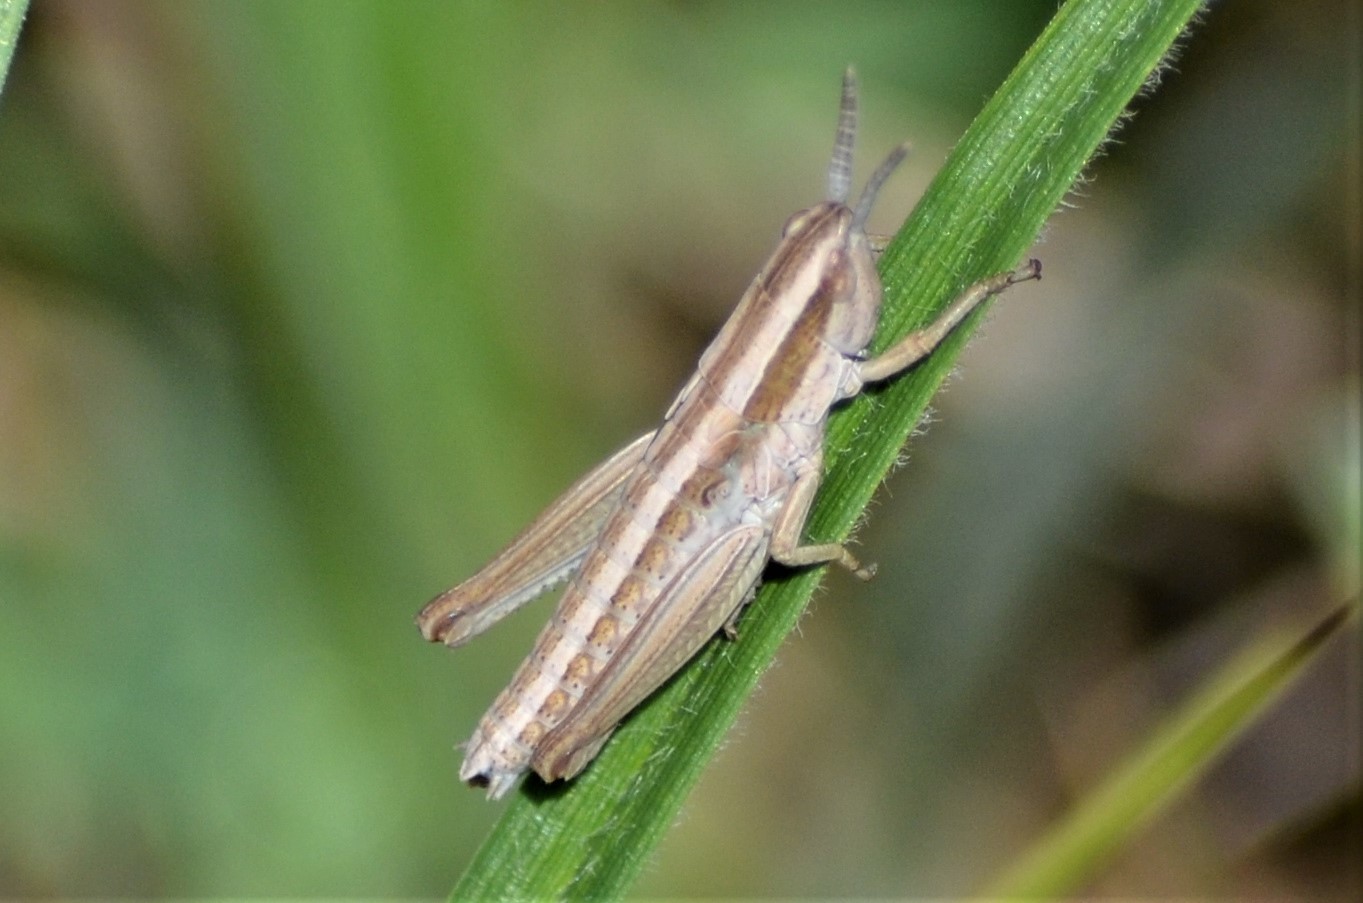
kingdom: Animalia
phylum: Arthropoda
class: Insecta
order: Orthoptera
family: Acrididae
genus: Euthystira
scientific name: Euthystira brachyptera
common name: Small gold grasshopper
